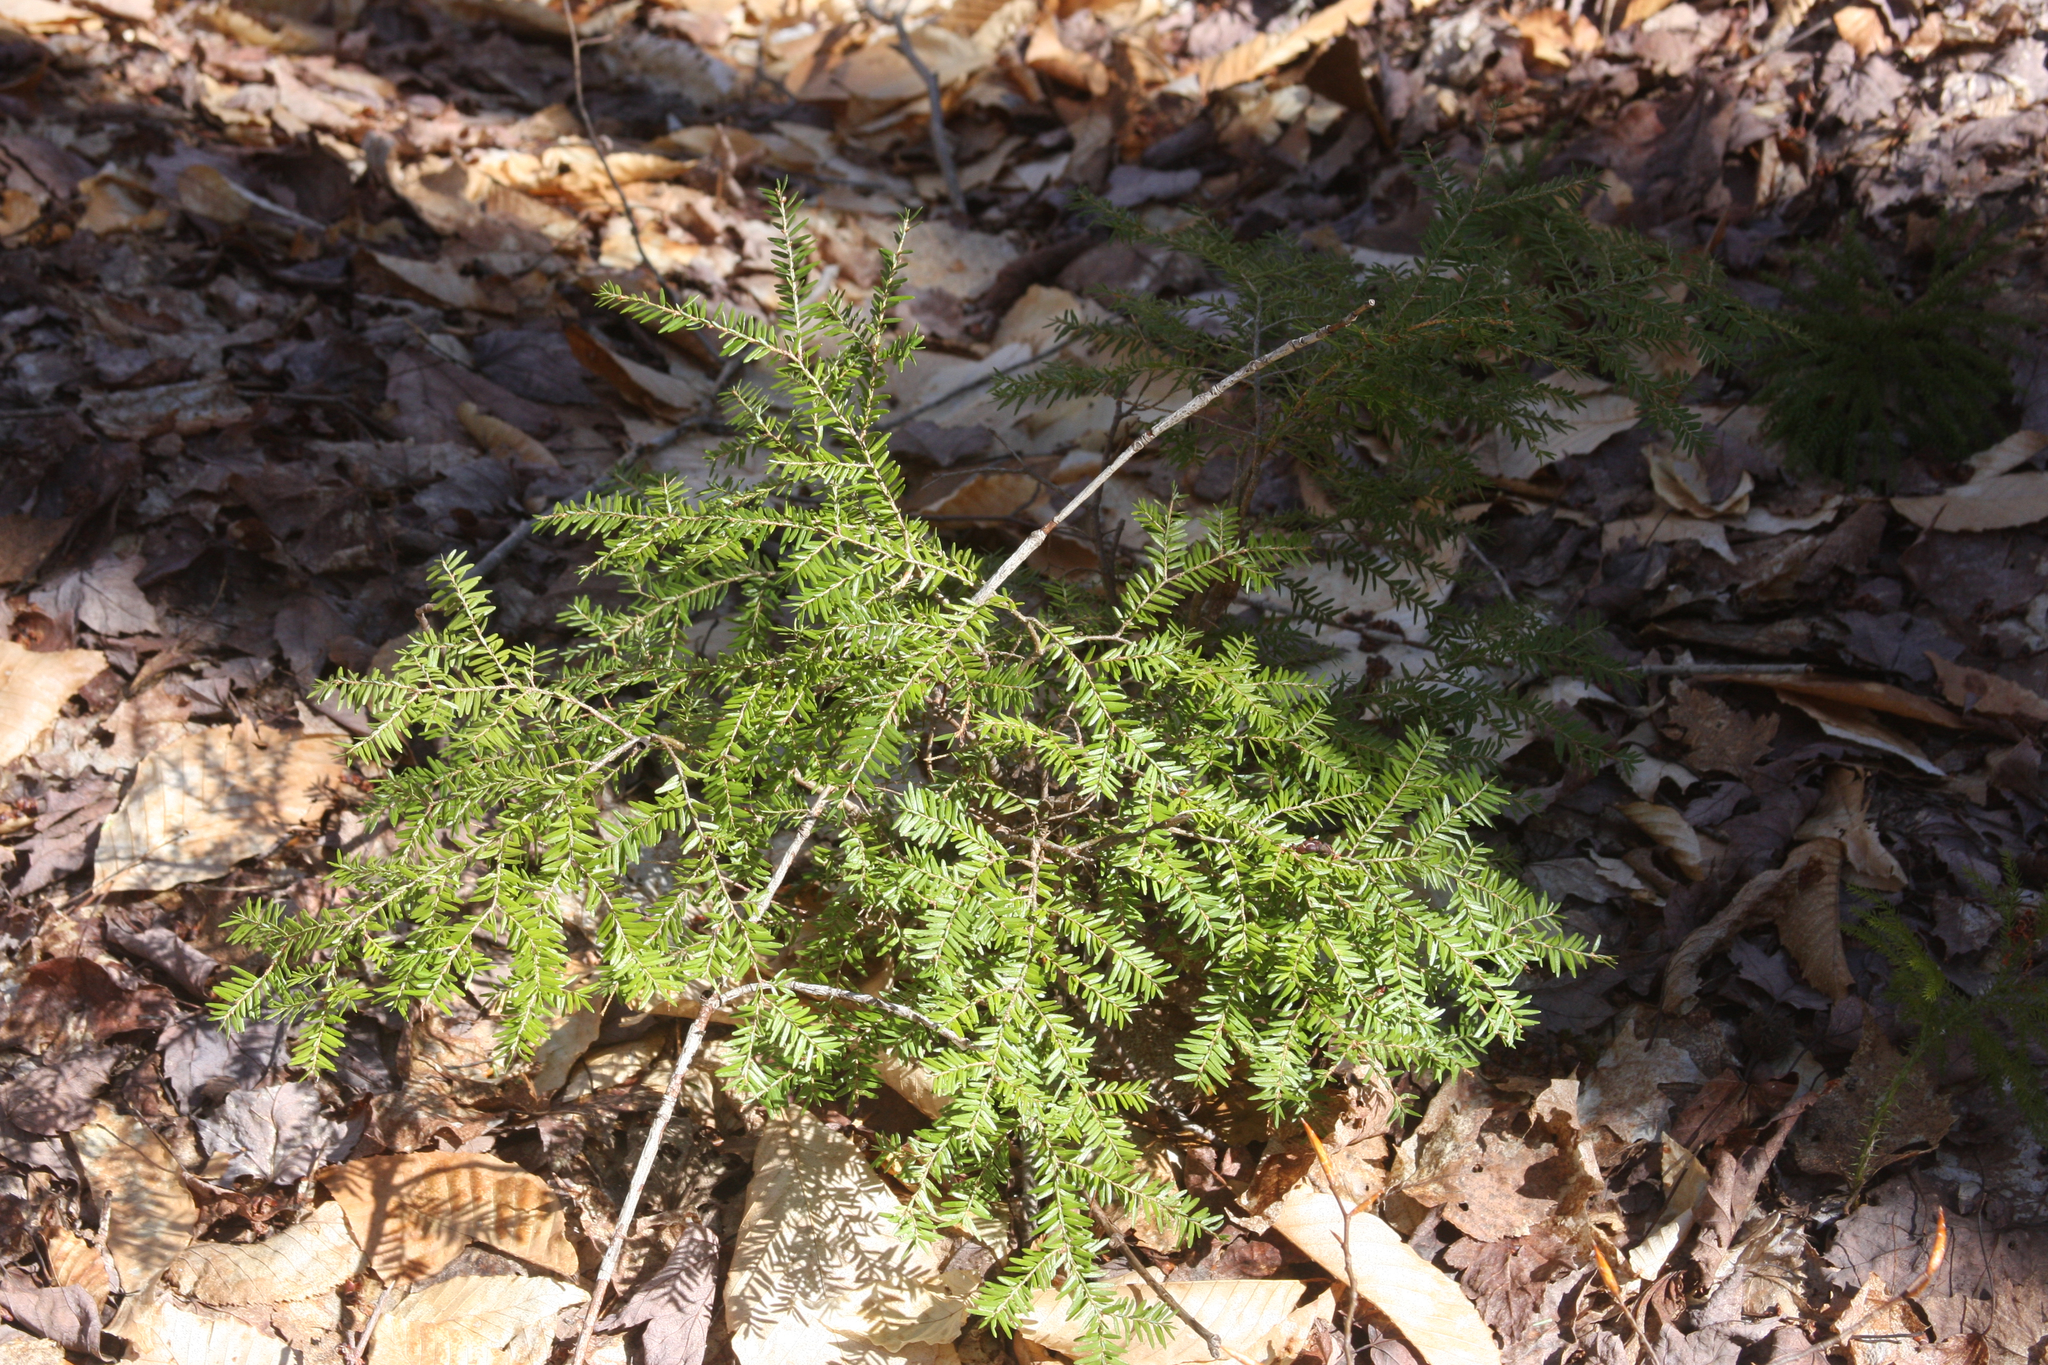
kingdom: Plantae
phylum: Tracheophyta
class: Pinopsida
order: Pinales
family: Pinaceae
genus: Tsuga
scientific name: Tsuga canadensis
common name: Eastern hemlock
